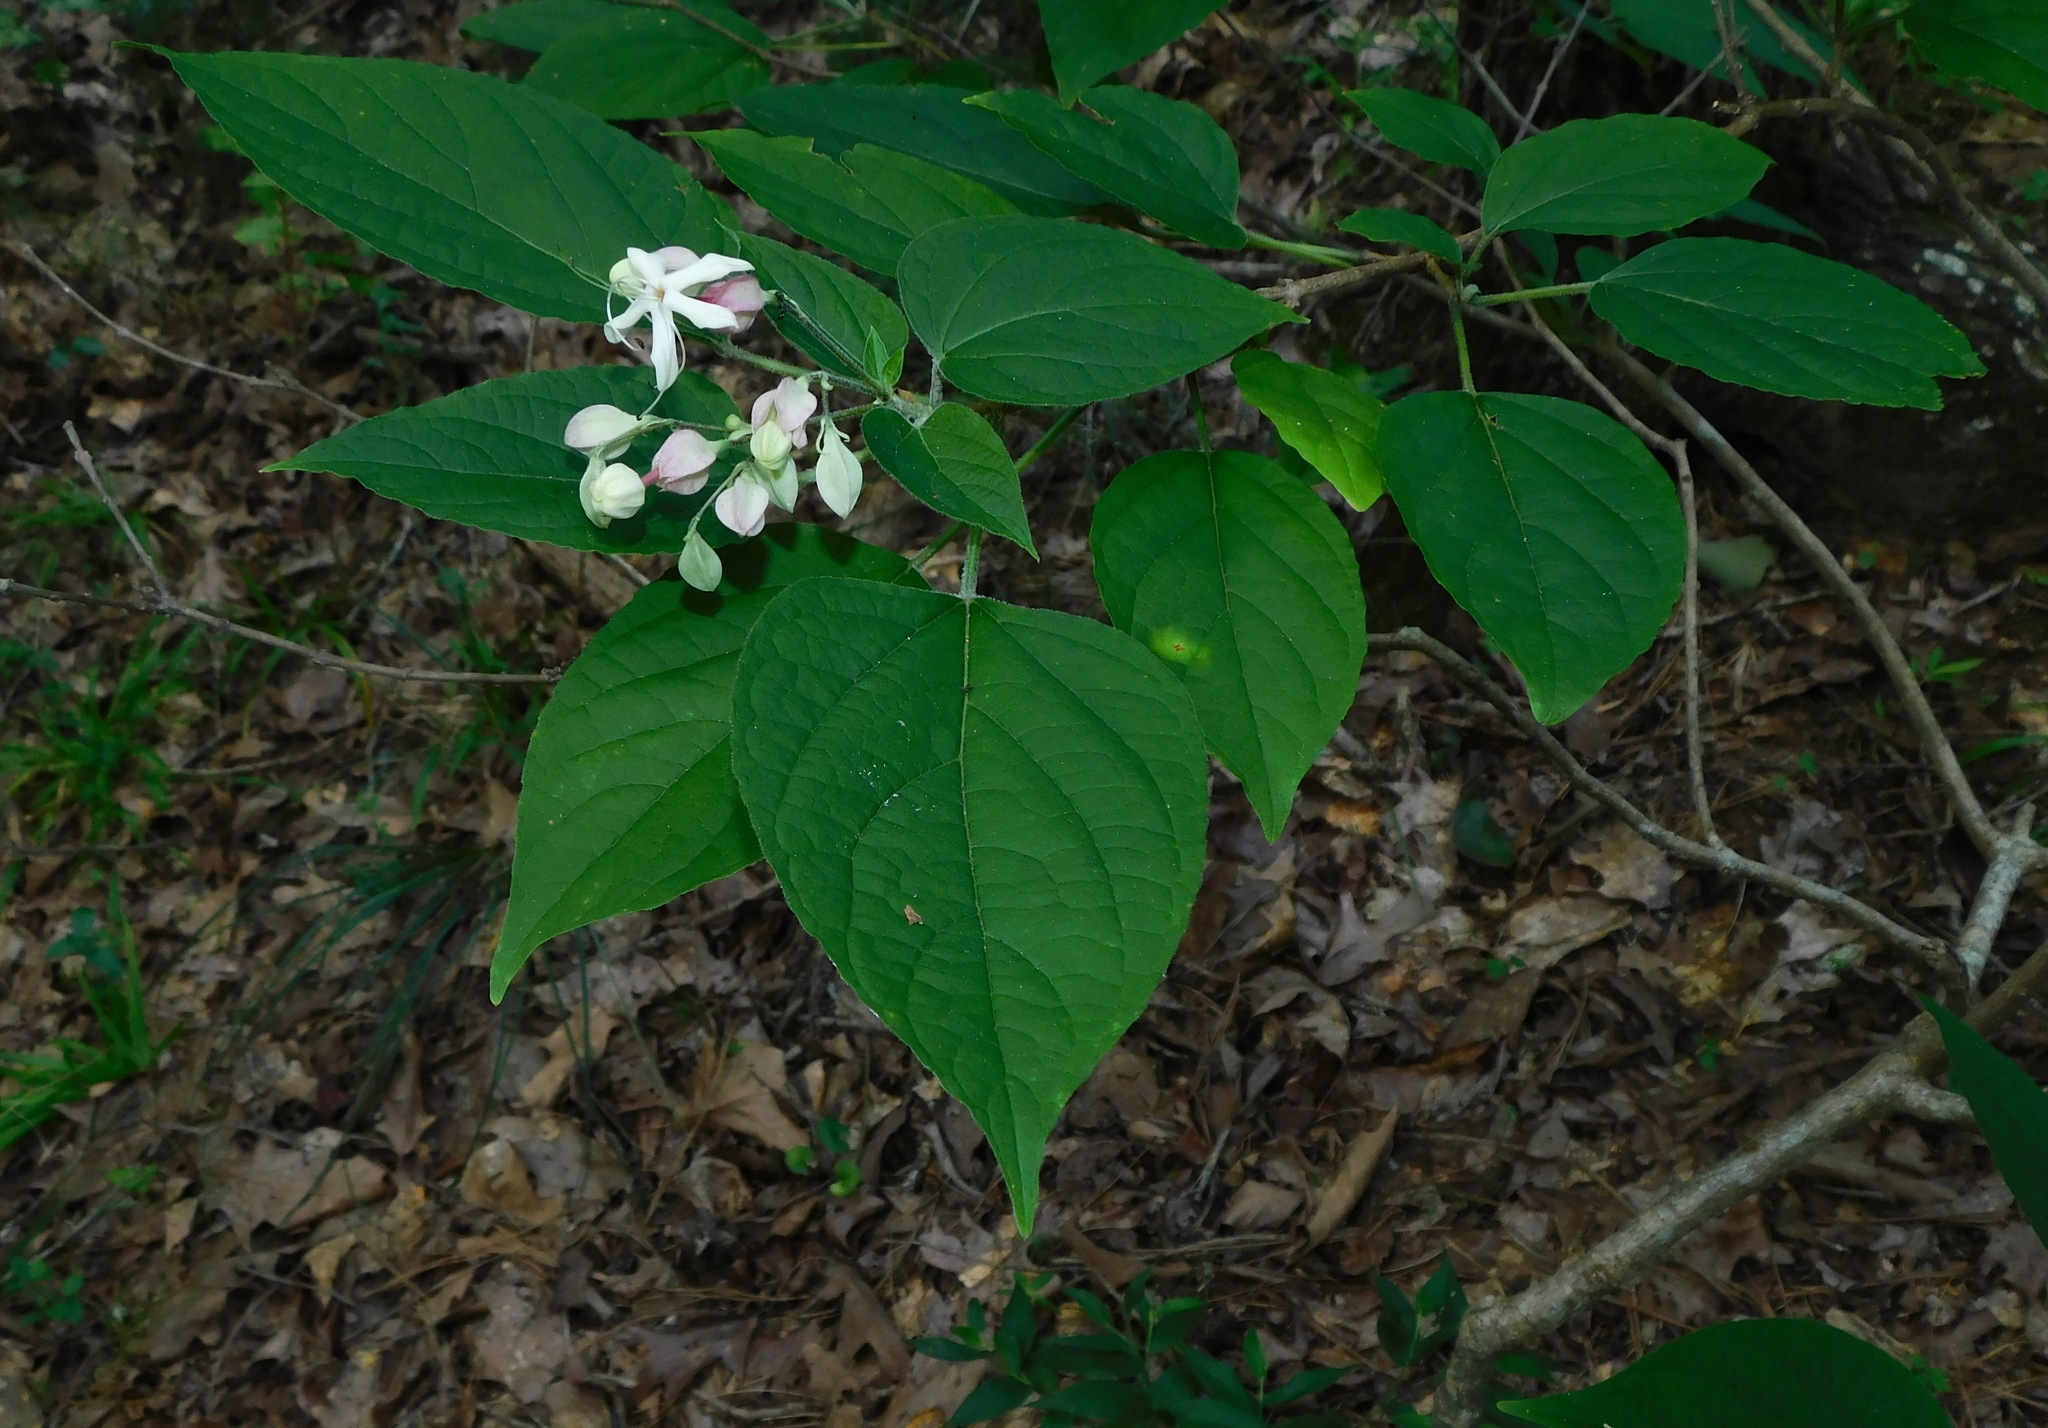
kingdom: Plantae
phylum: Tracheophyta
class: Magnoliopsida
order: Lamiales
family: Lamiaceae
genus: Clerodendrum
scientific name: Clerodendrum trichotomum
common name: Harlequin glorybower
